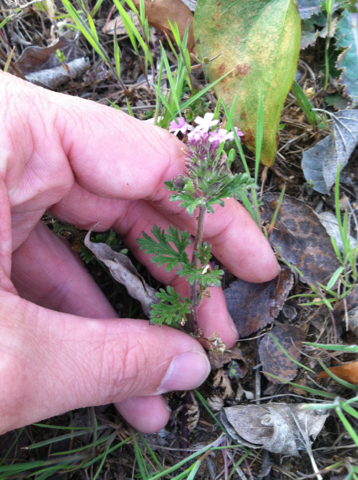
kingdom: Plantae
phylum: Tracheophyta
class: Magnoliopsida
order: Lamiales
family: Verbenaceae
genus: Verbena
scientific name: Verbena pumila
